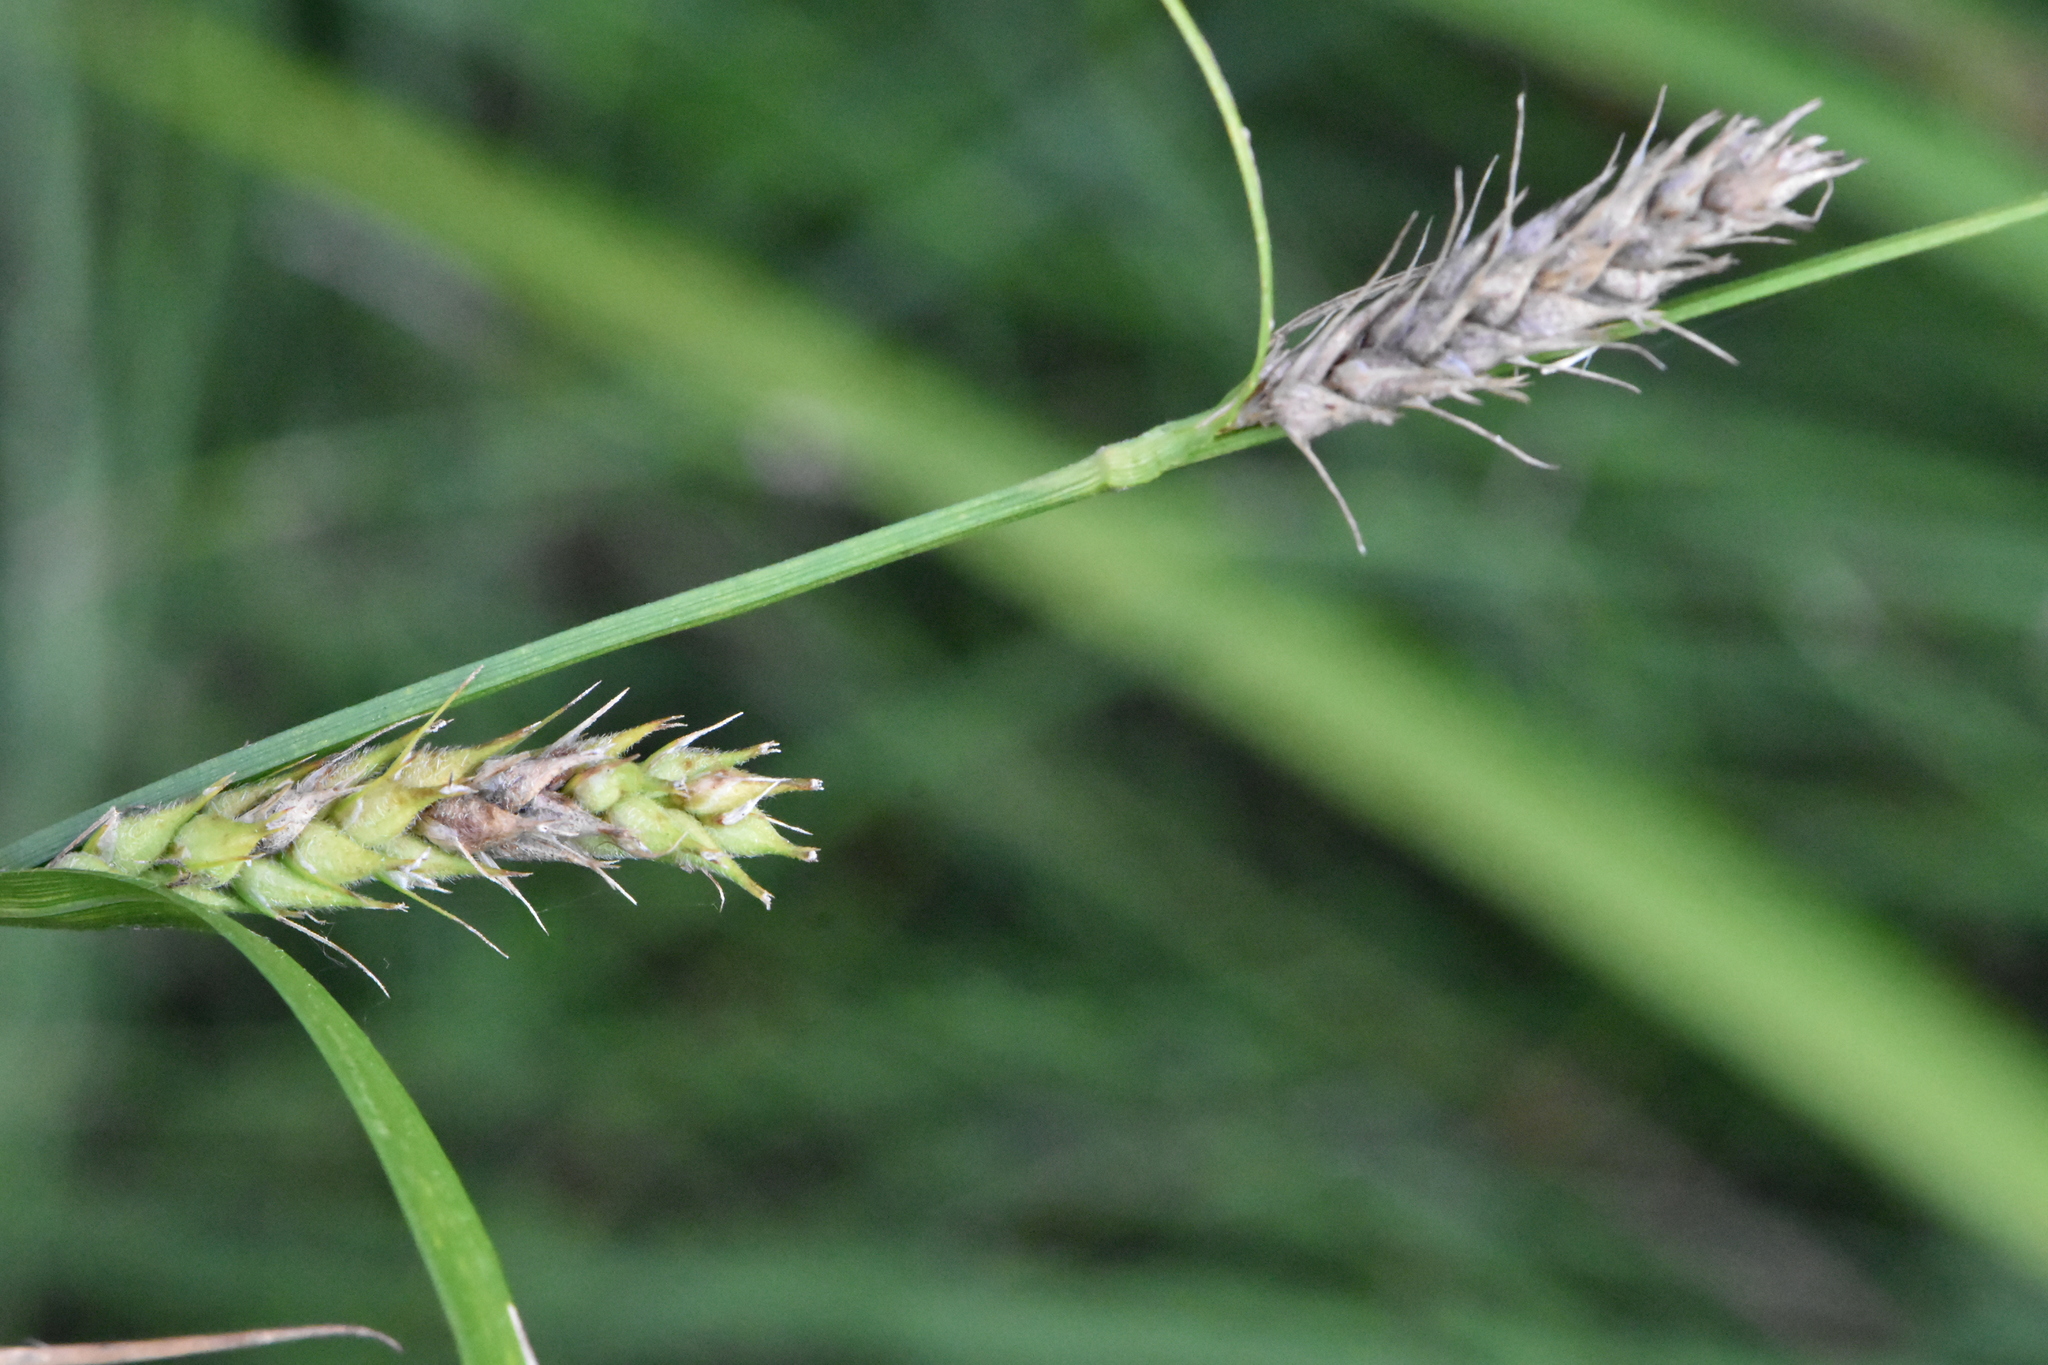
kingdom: Plantae
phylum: Tracheophyta
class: Liliopsida
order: Poales
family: Cyperaceae
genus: Carex
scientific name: Carex hirta
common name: Hairy sedge
